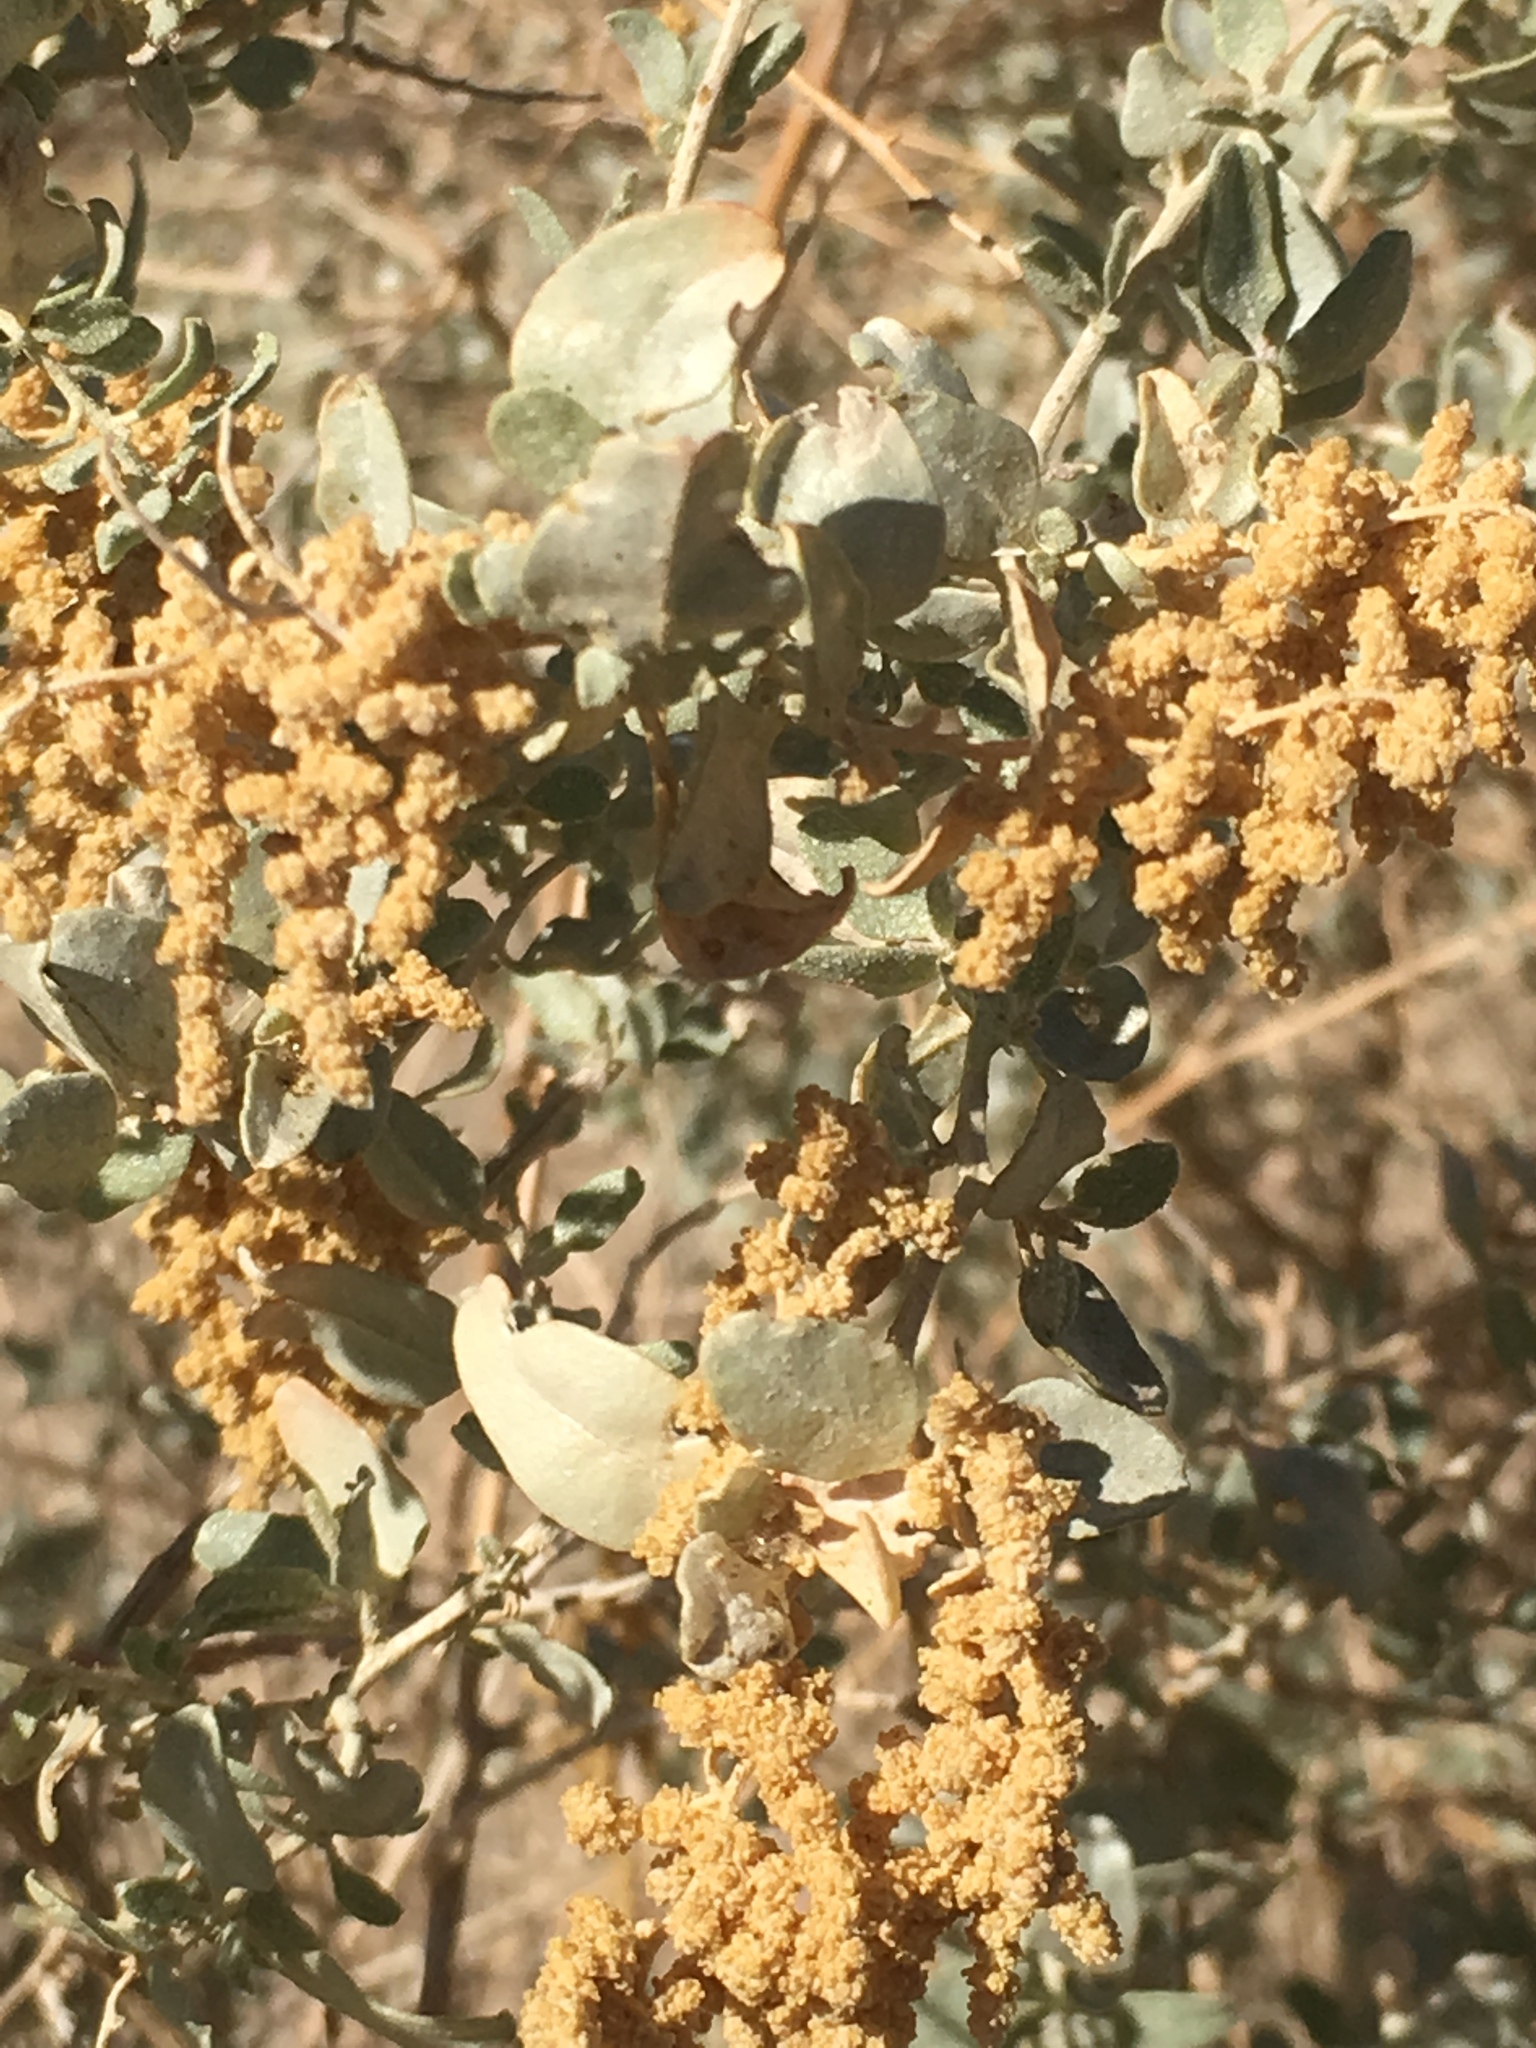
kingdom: Plantae
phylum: Tracheophyta
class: Magnoliopsida
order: Caryophyllales
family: Amaranthaceae
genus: Atriplex
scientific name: Atriplex lentiformis
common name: Big saltbush
